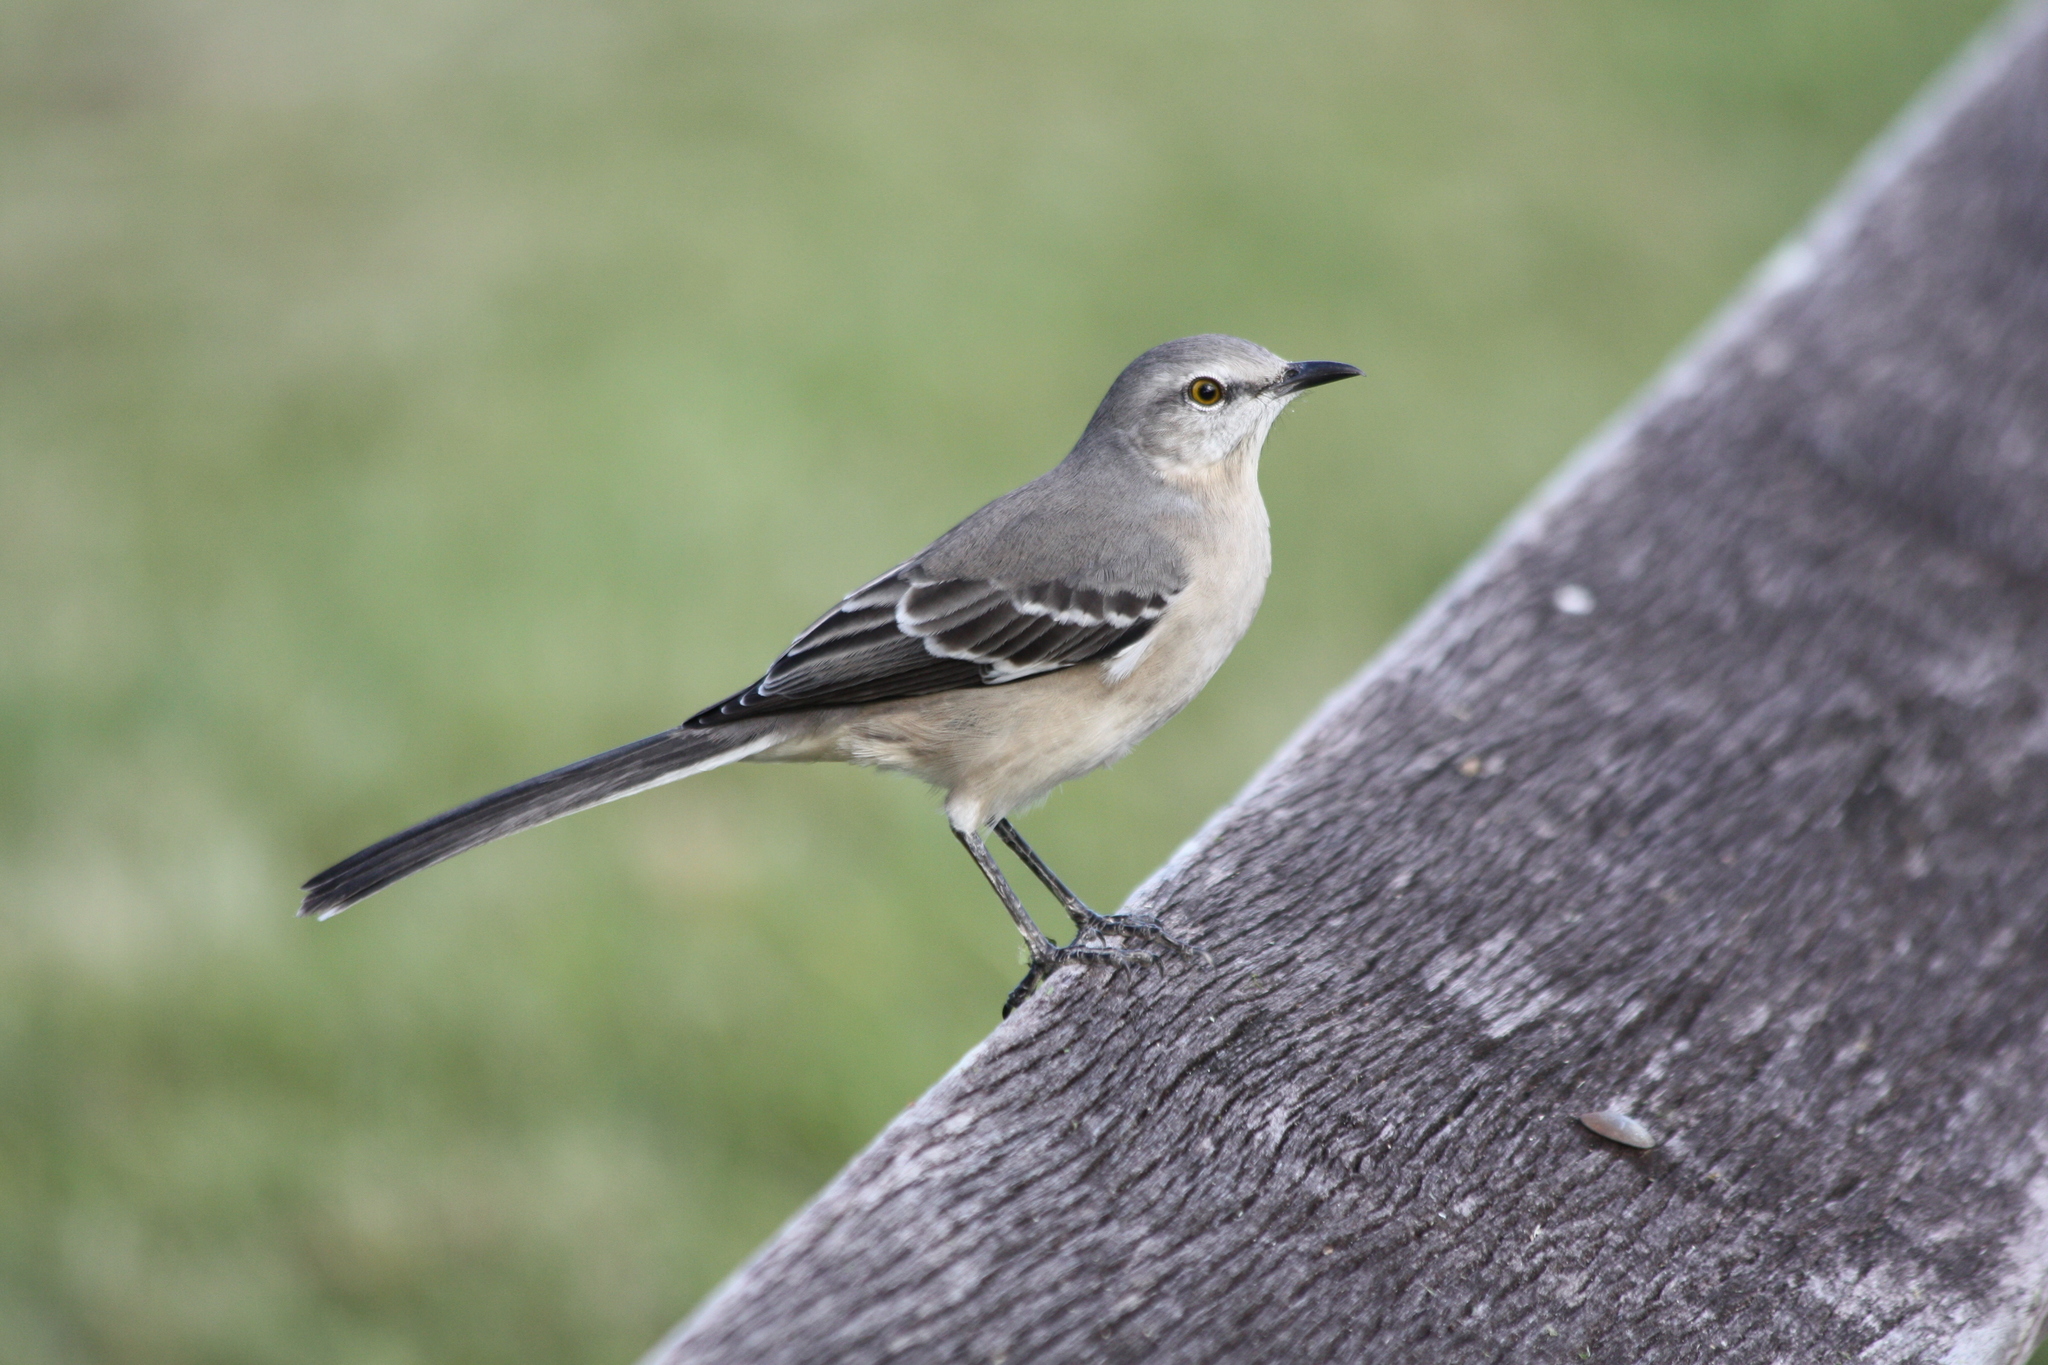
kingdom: Animalia
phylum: Chordata
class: Aves
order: Passeriformes
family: Mimidae
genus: Mimus
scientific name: Mimus polyglottos
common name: Northern mockingbird
